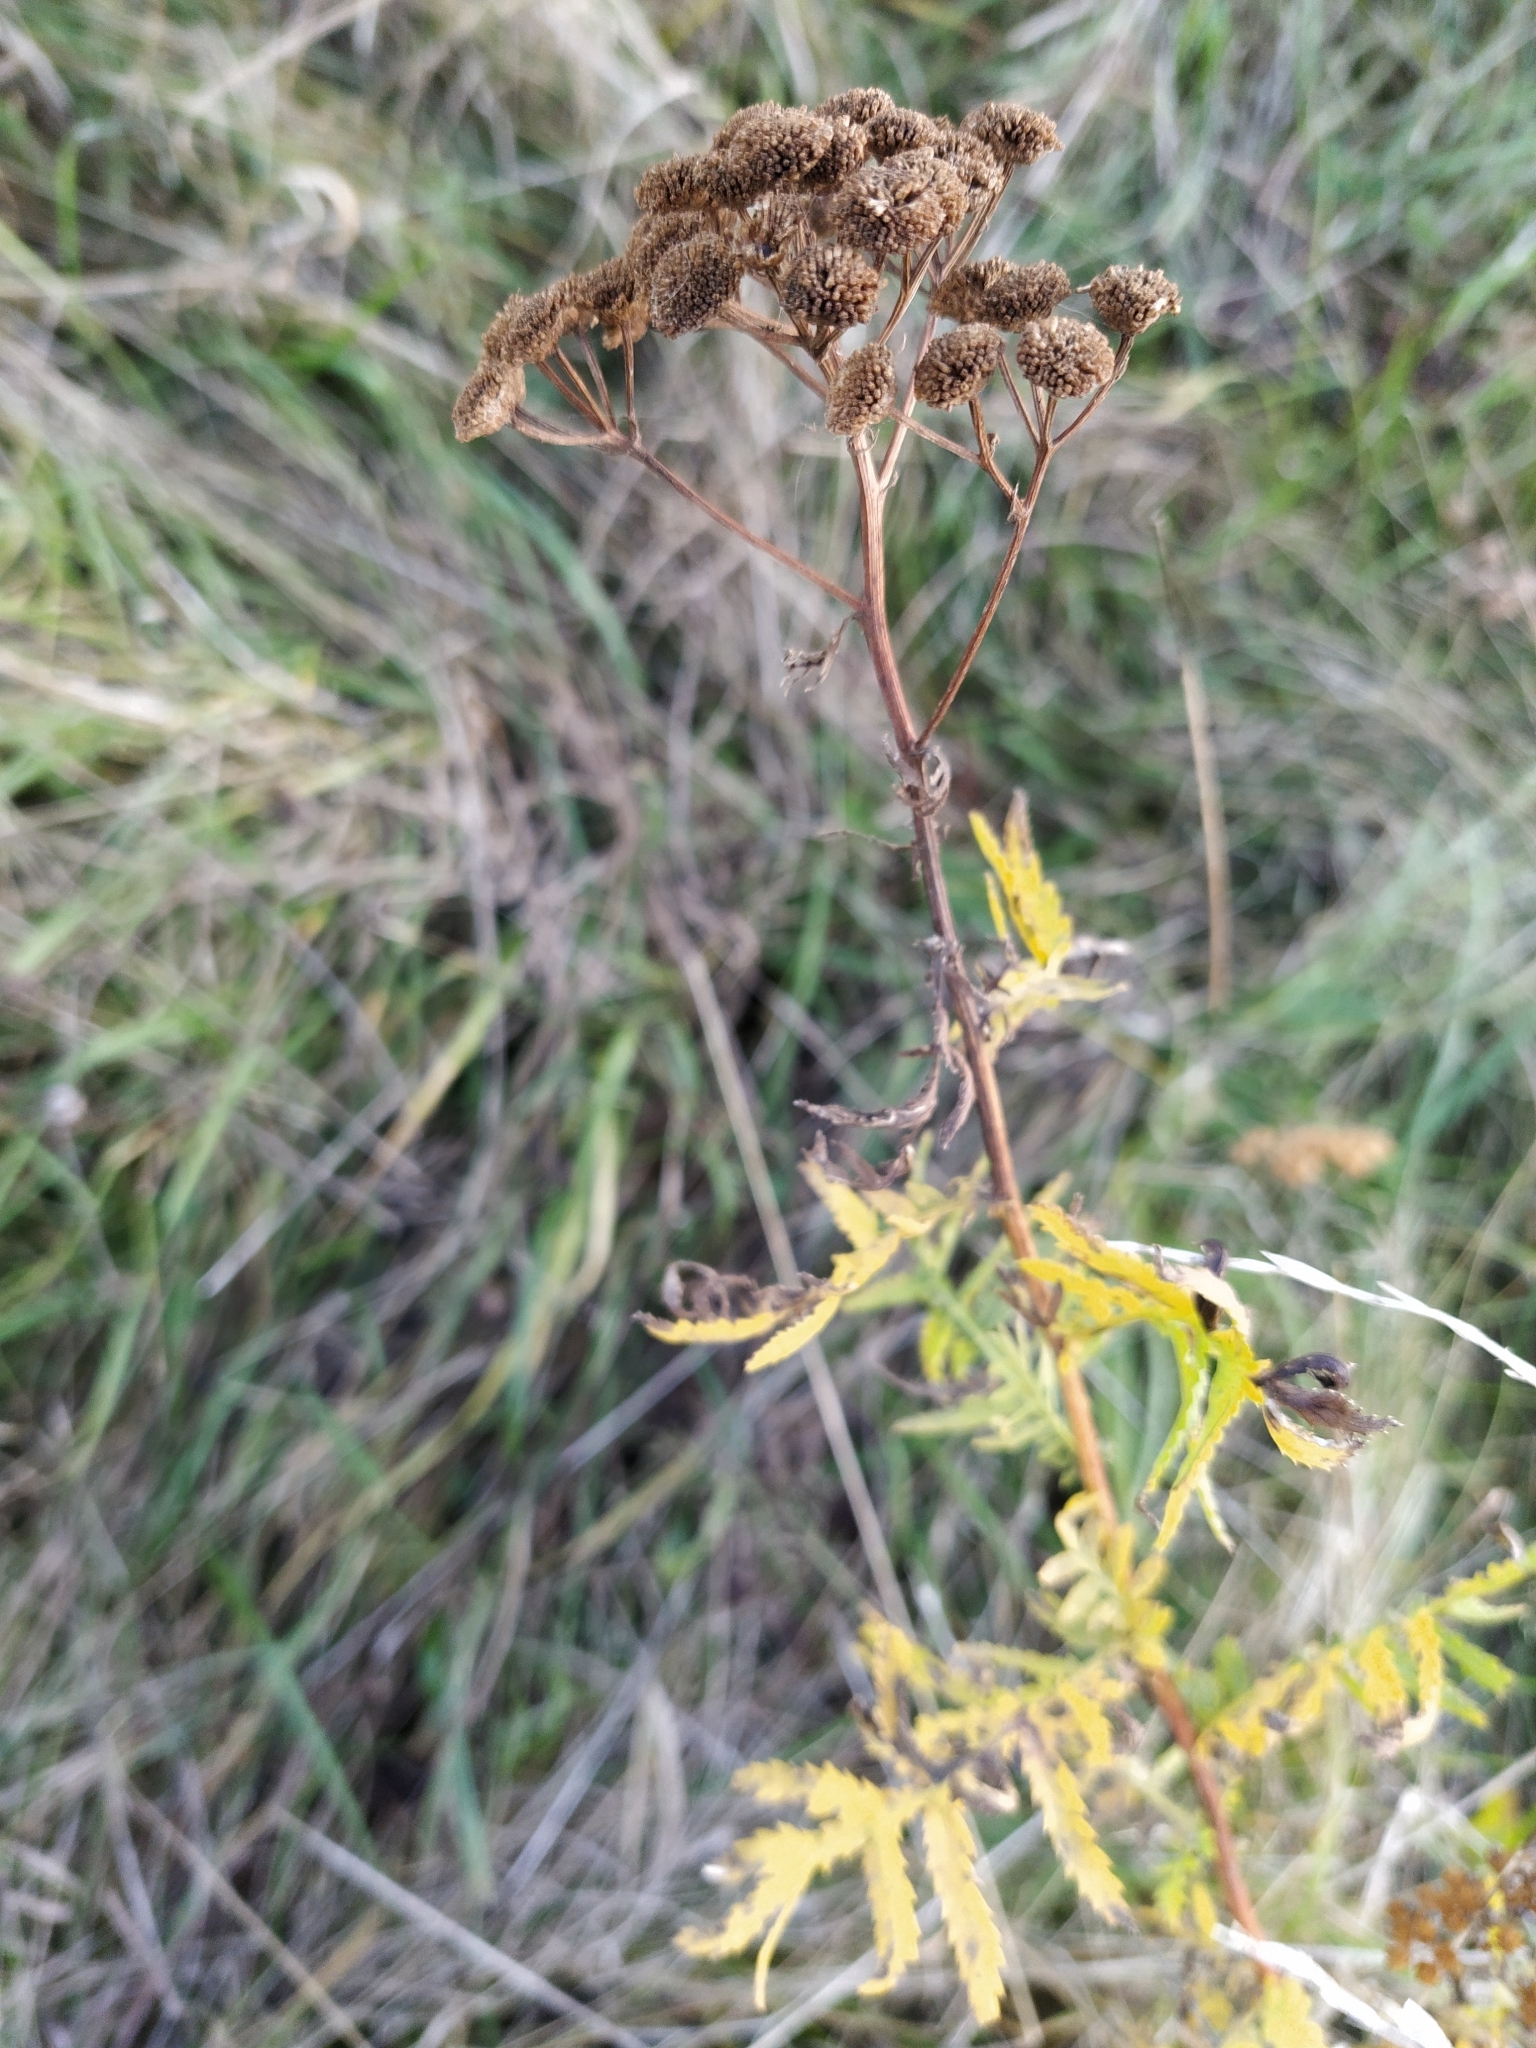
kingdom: Plantae
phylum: Tracheophyta
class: Magnoliopsida
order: Asterales
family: Asteraceae
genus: Tanacetum
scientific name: Tanacetum vulgare
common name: Common tansy
